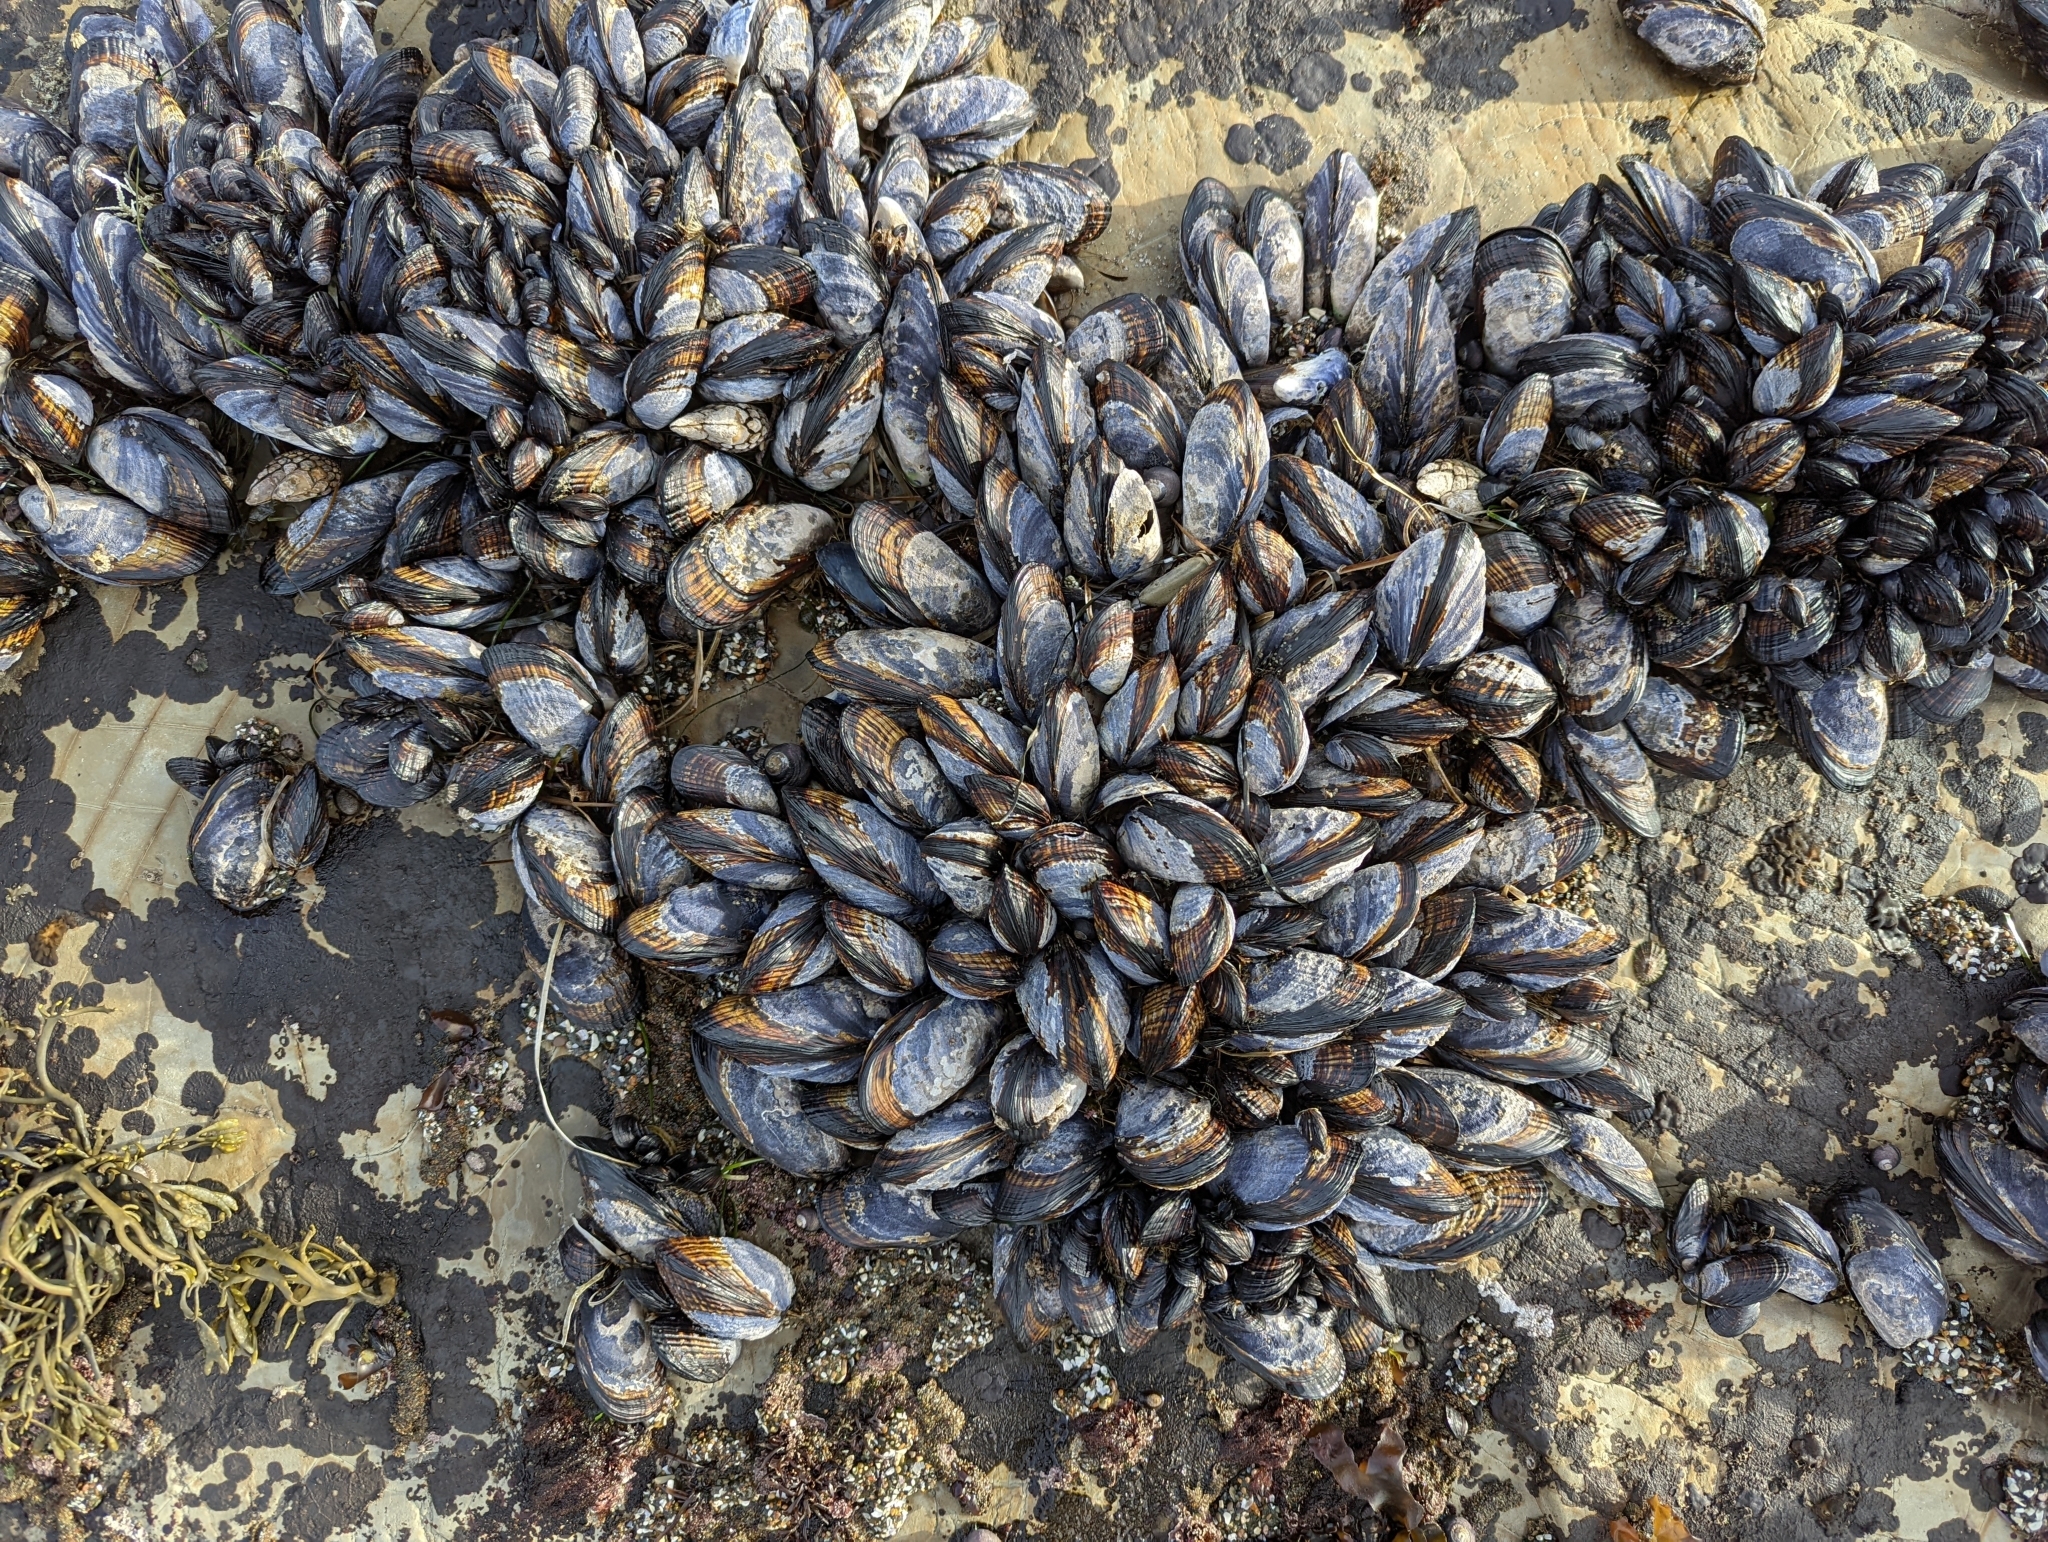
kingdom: Animalia
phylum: Mollusca
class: Bivalvia
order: Mytilida
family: Mytilidae
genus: Mytilus
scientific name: Mytilus californianus
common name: California mussel
